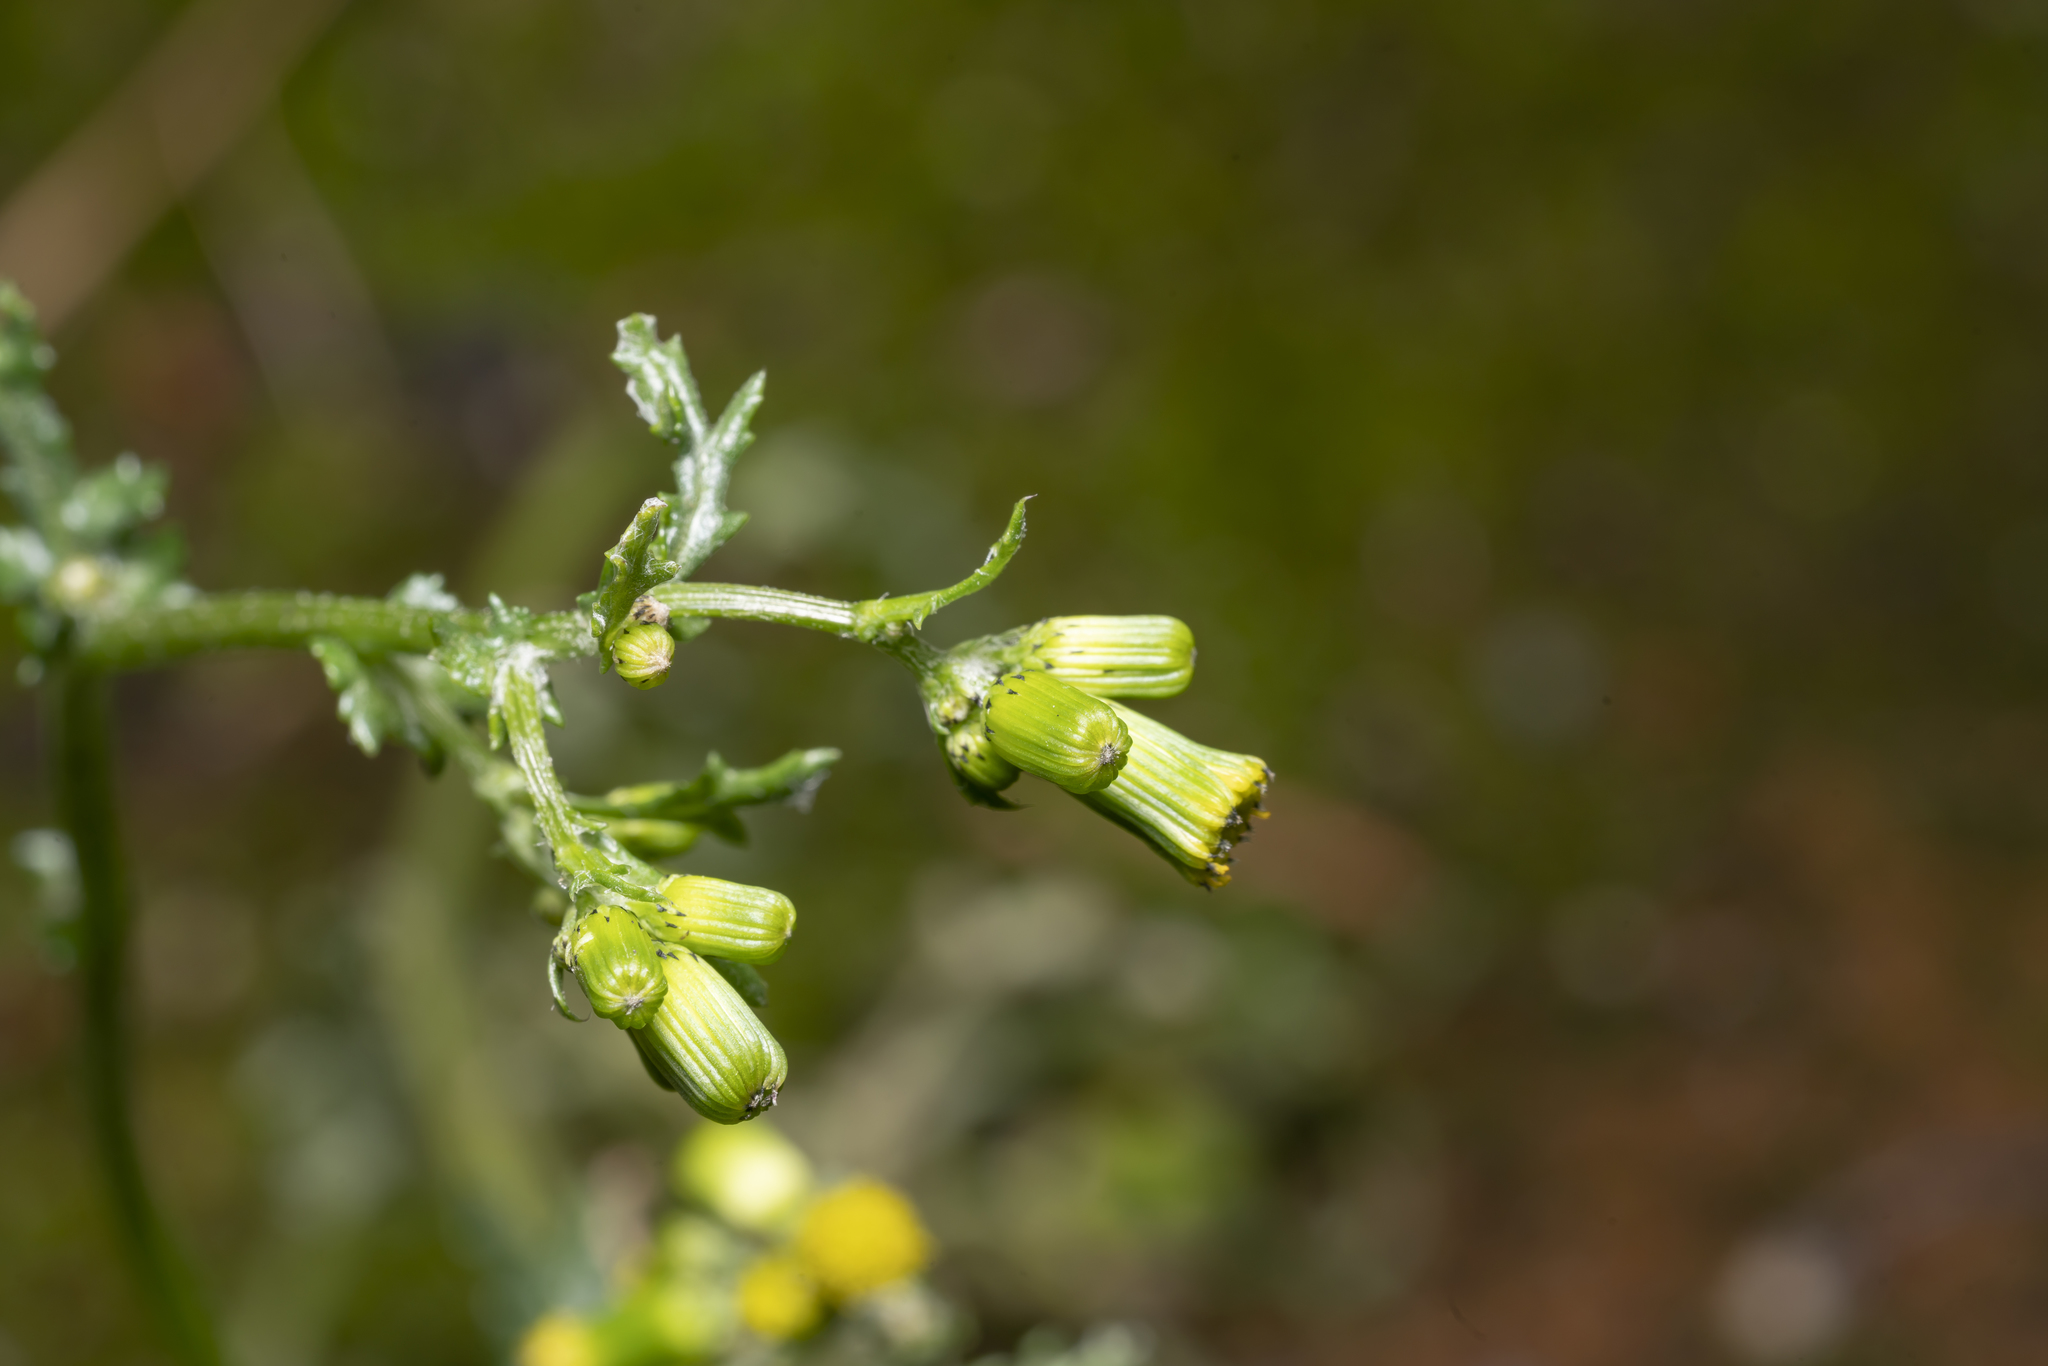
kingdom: Plantae
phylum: Tracheophyta
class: Magnoliopsida
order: Asterales
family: Asteraceae
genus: Senecio
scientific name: Senecio vulgaris
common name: Old-man-in-the-spring
